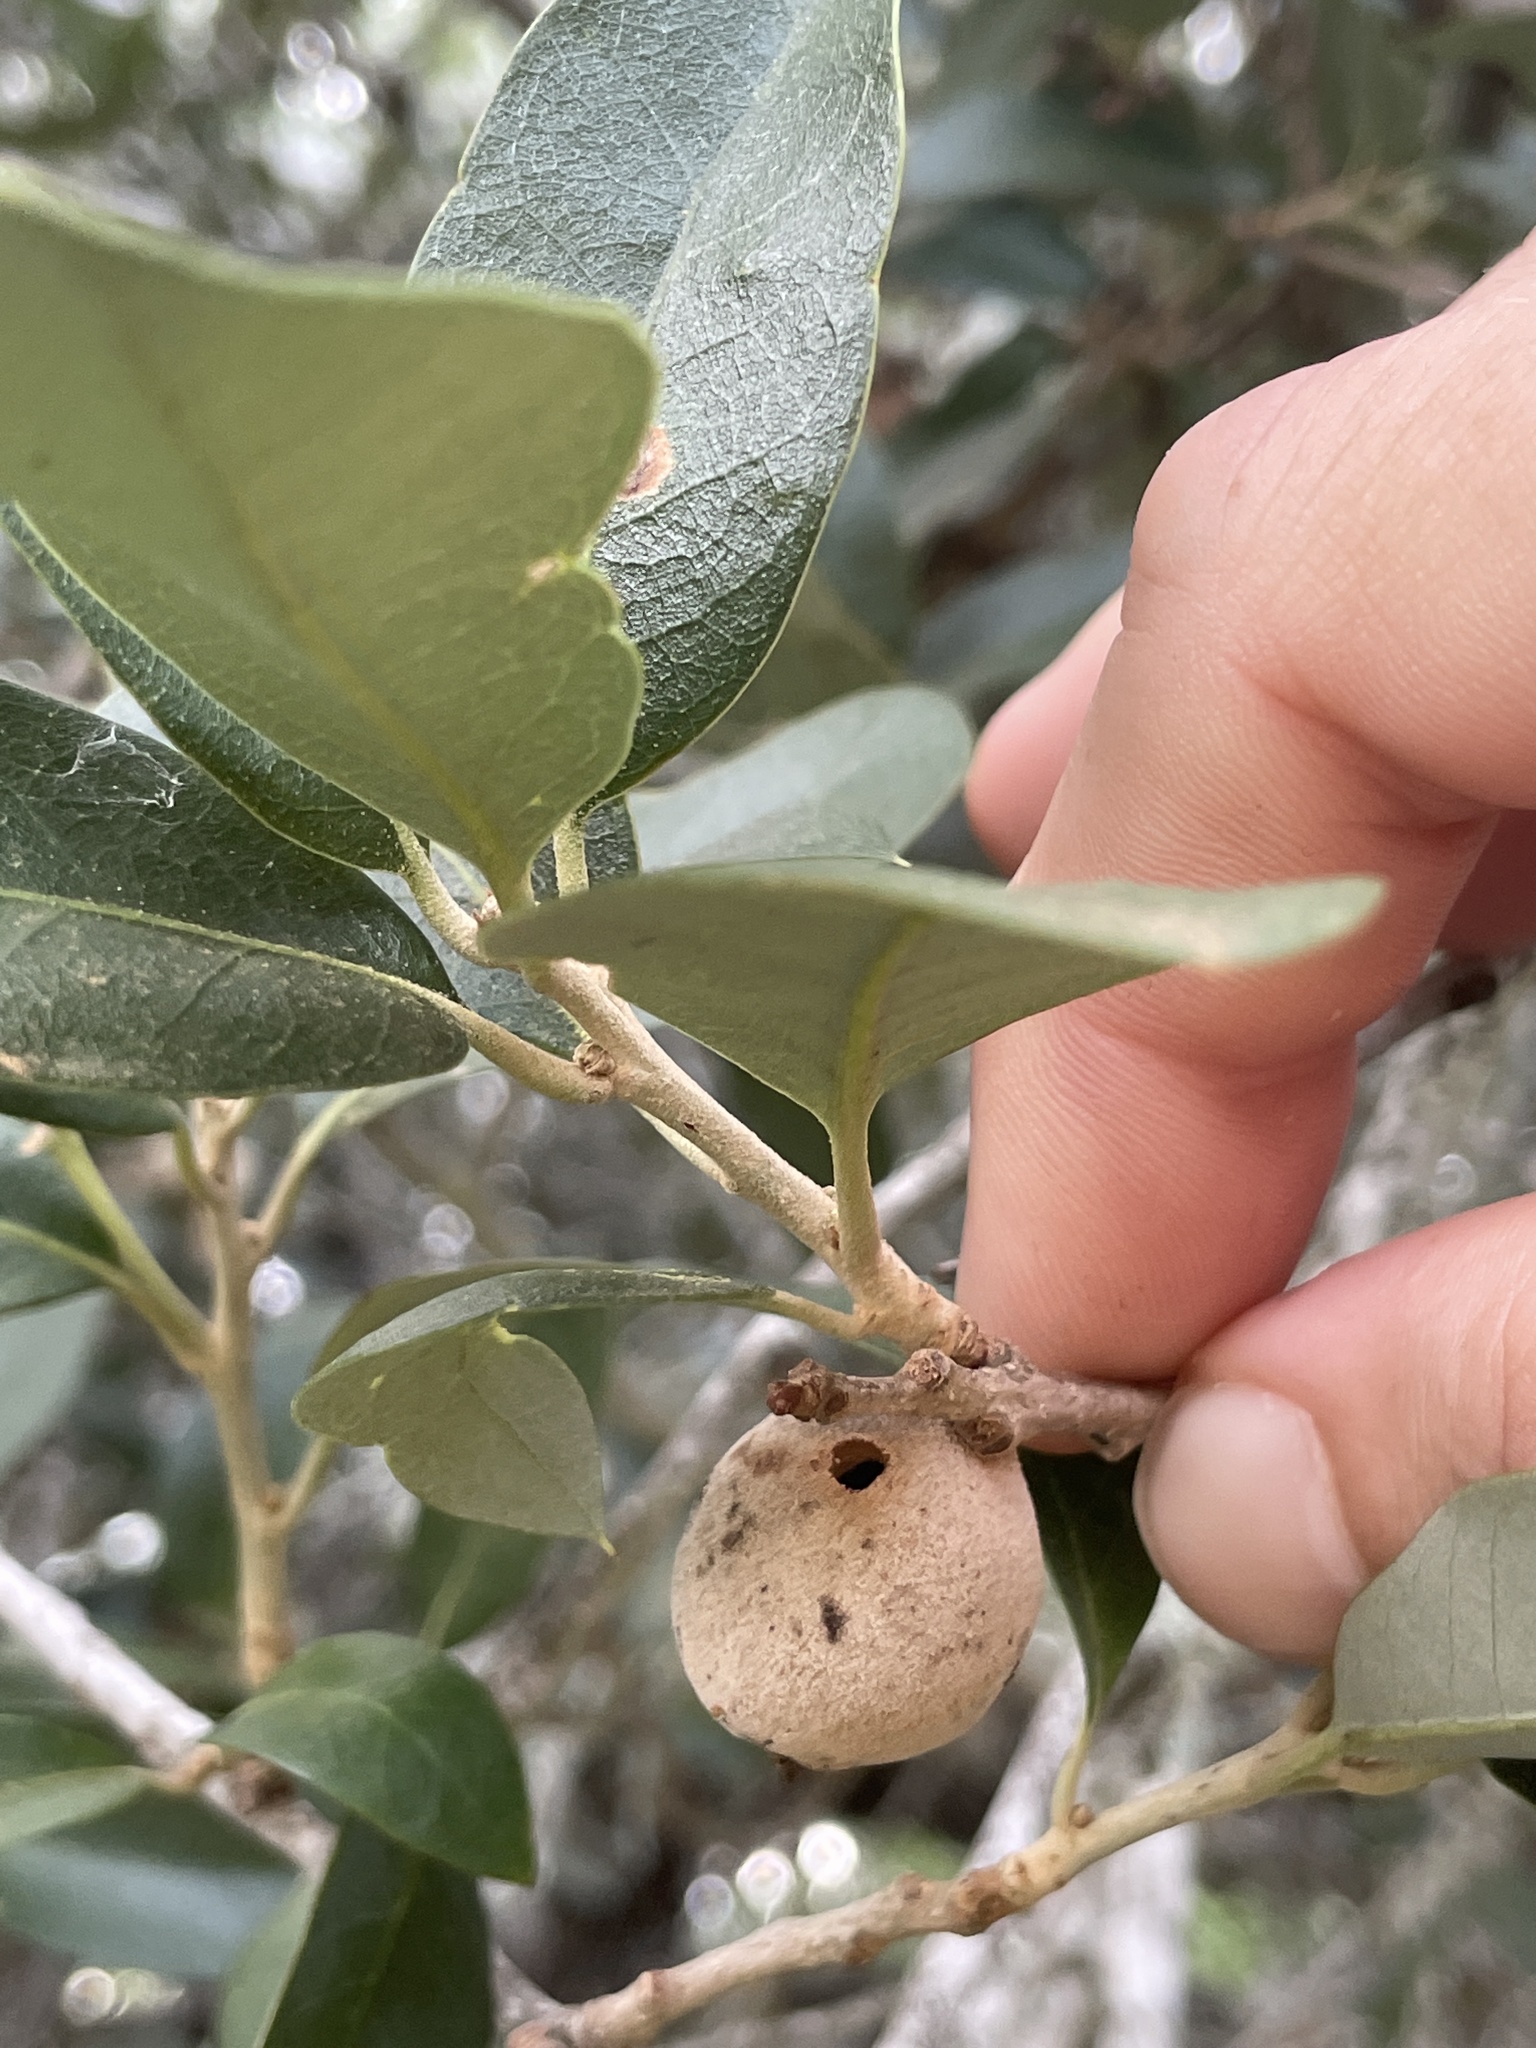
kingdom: Animalia
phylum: Arthropoda
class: Insecta
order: Hymenoptera
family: Cynipidae
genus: Disholcaspis
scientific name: Disholcaspis
